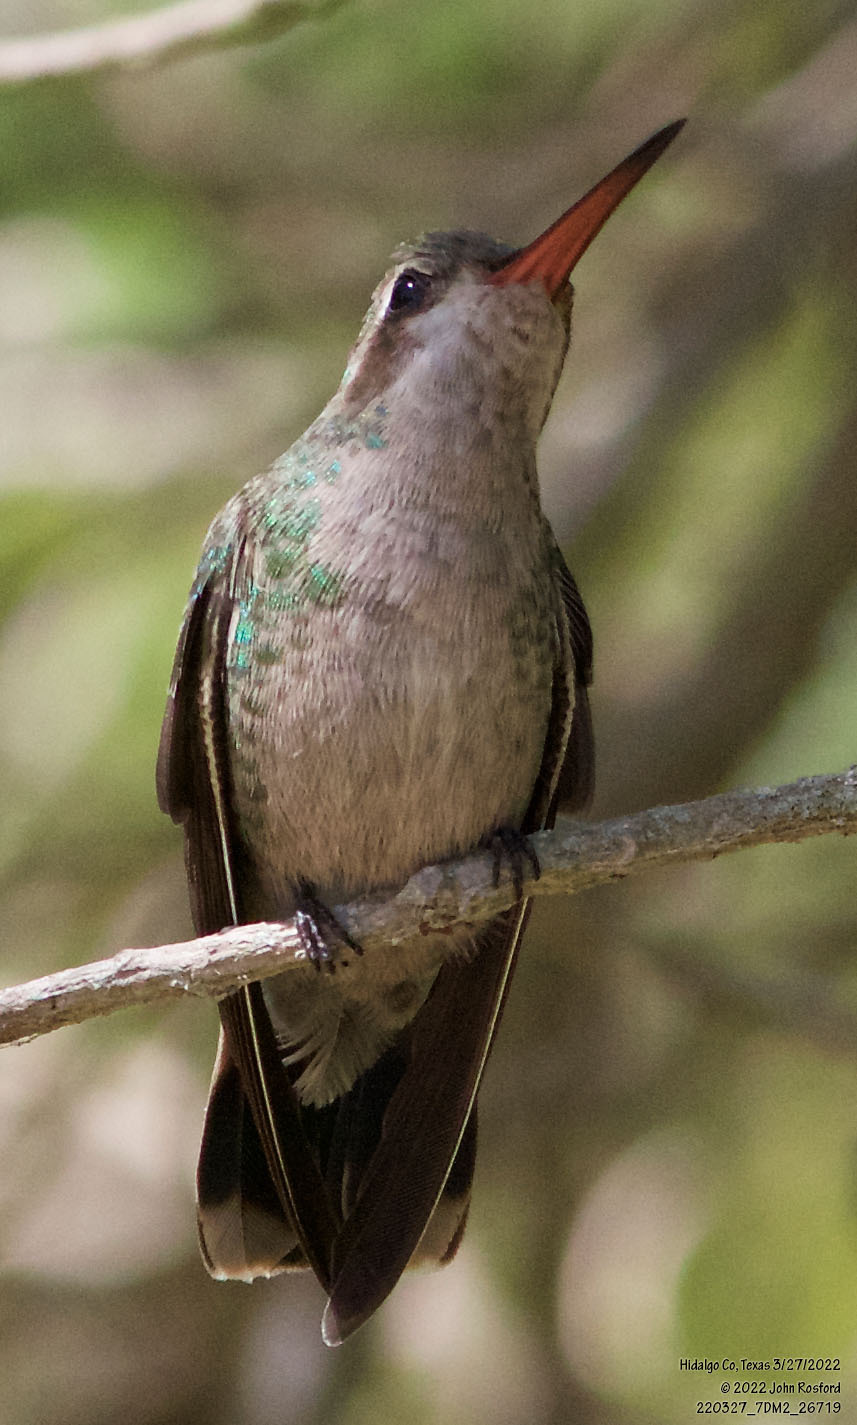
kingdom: Animalia
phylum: Chordata
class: Aves
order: Apodiformes
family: Trochilidae
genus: Cynanthus
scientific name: Cynanthus latirostris
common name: Broad-billed hummingbird
